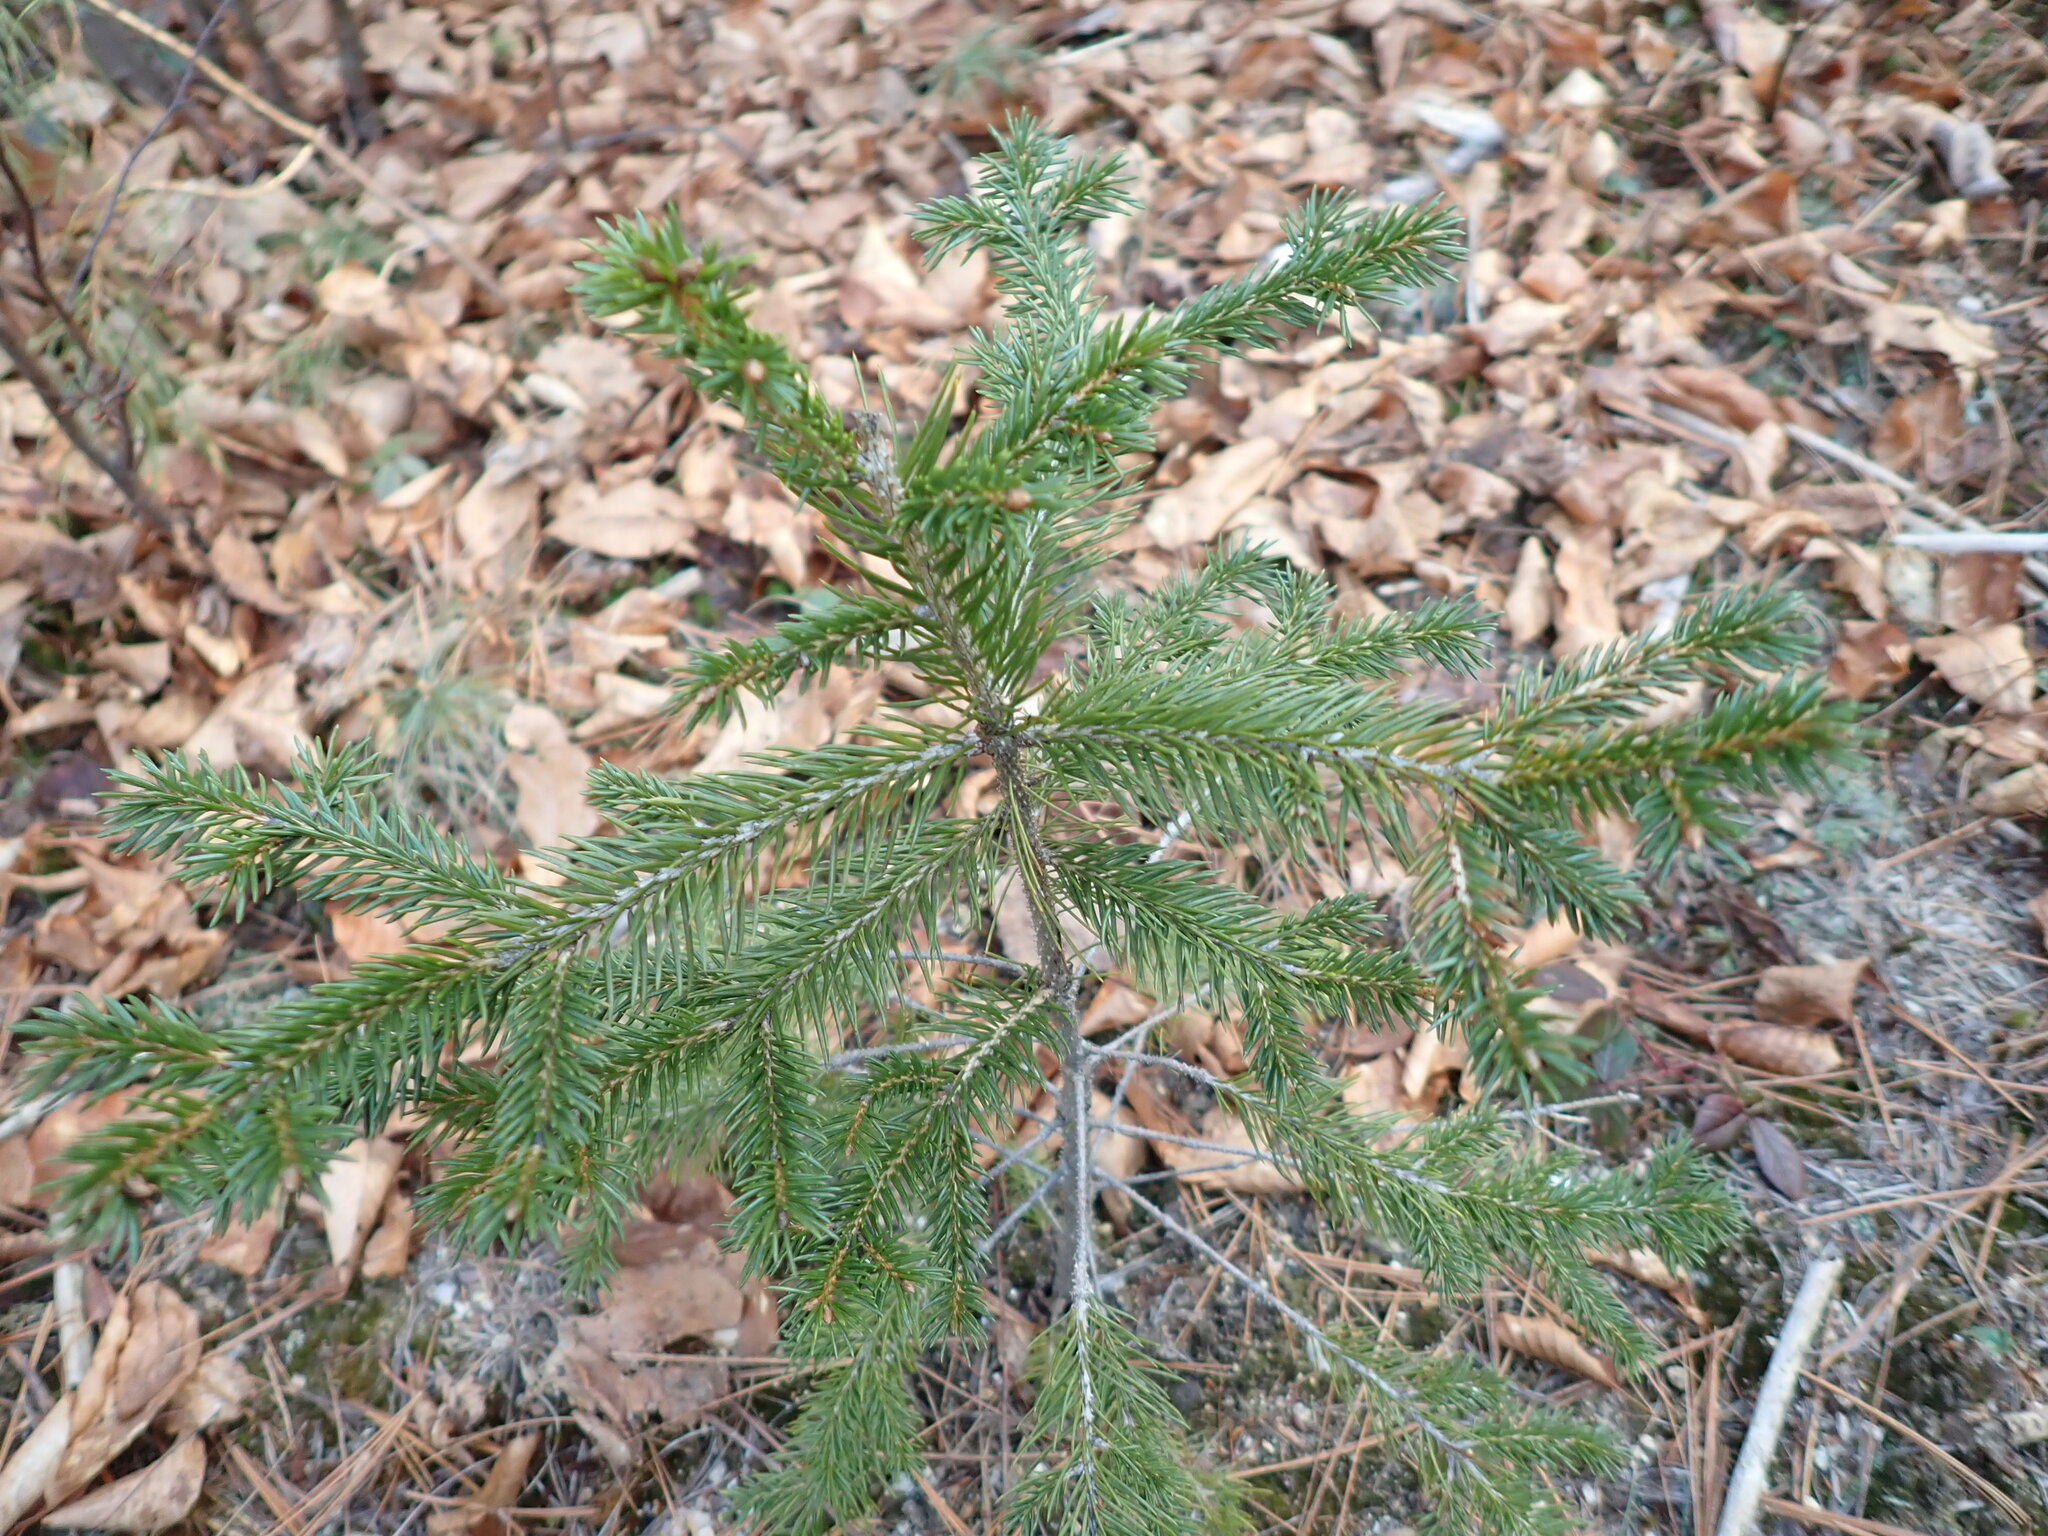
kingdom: Plantae
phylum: Tracheophyta
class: Pinopsida
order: Pinales
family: Pinaceae
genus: Picea
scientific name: Picea rubens
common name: Red spruce
